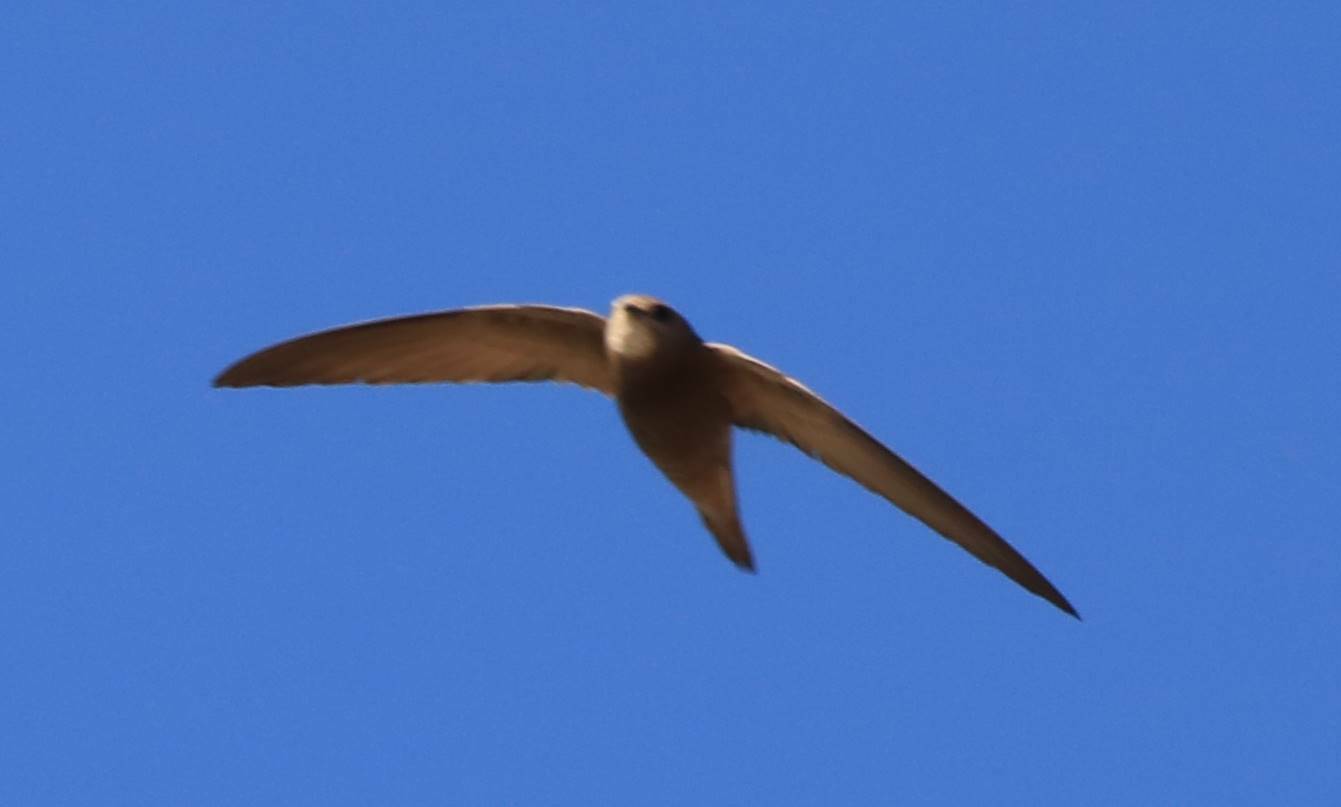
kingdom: Animalia
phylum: Chordata
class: Aves
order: Apodiformes
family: Apodidae
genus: Apus
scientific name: Apus pallidus
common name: Pallid swift
